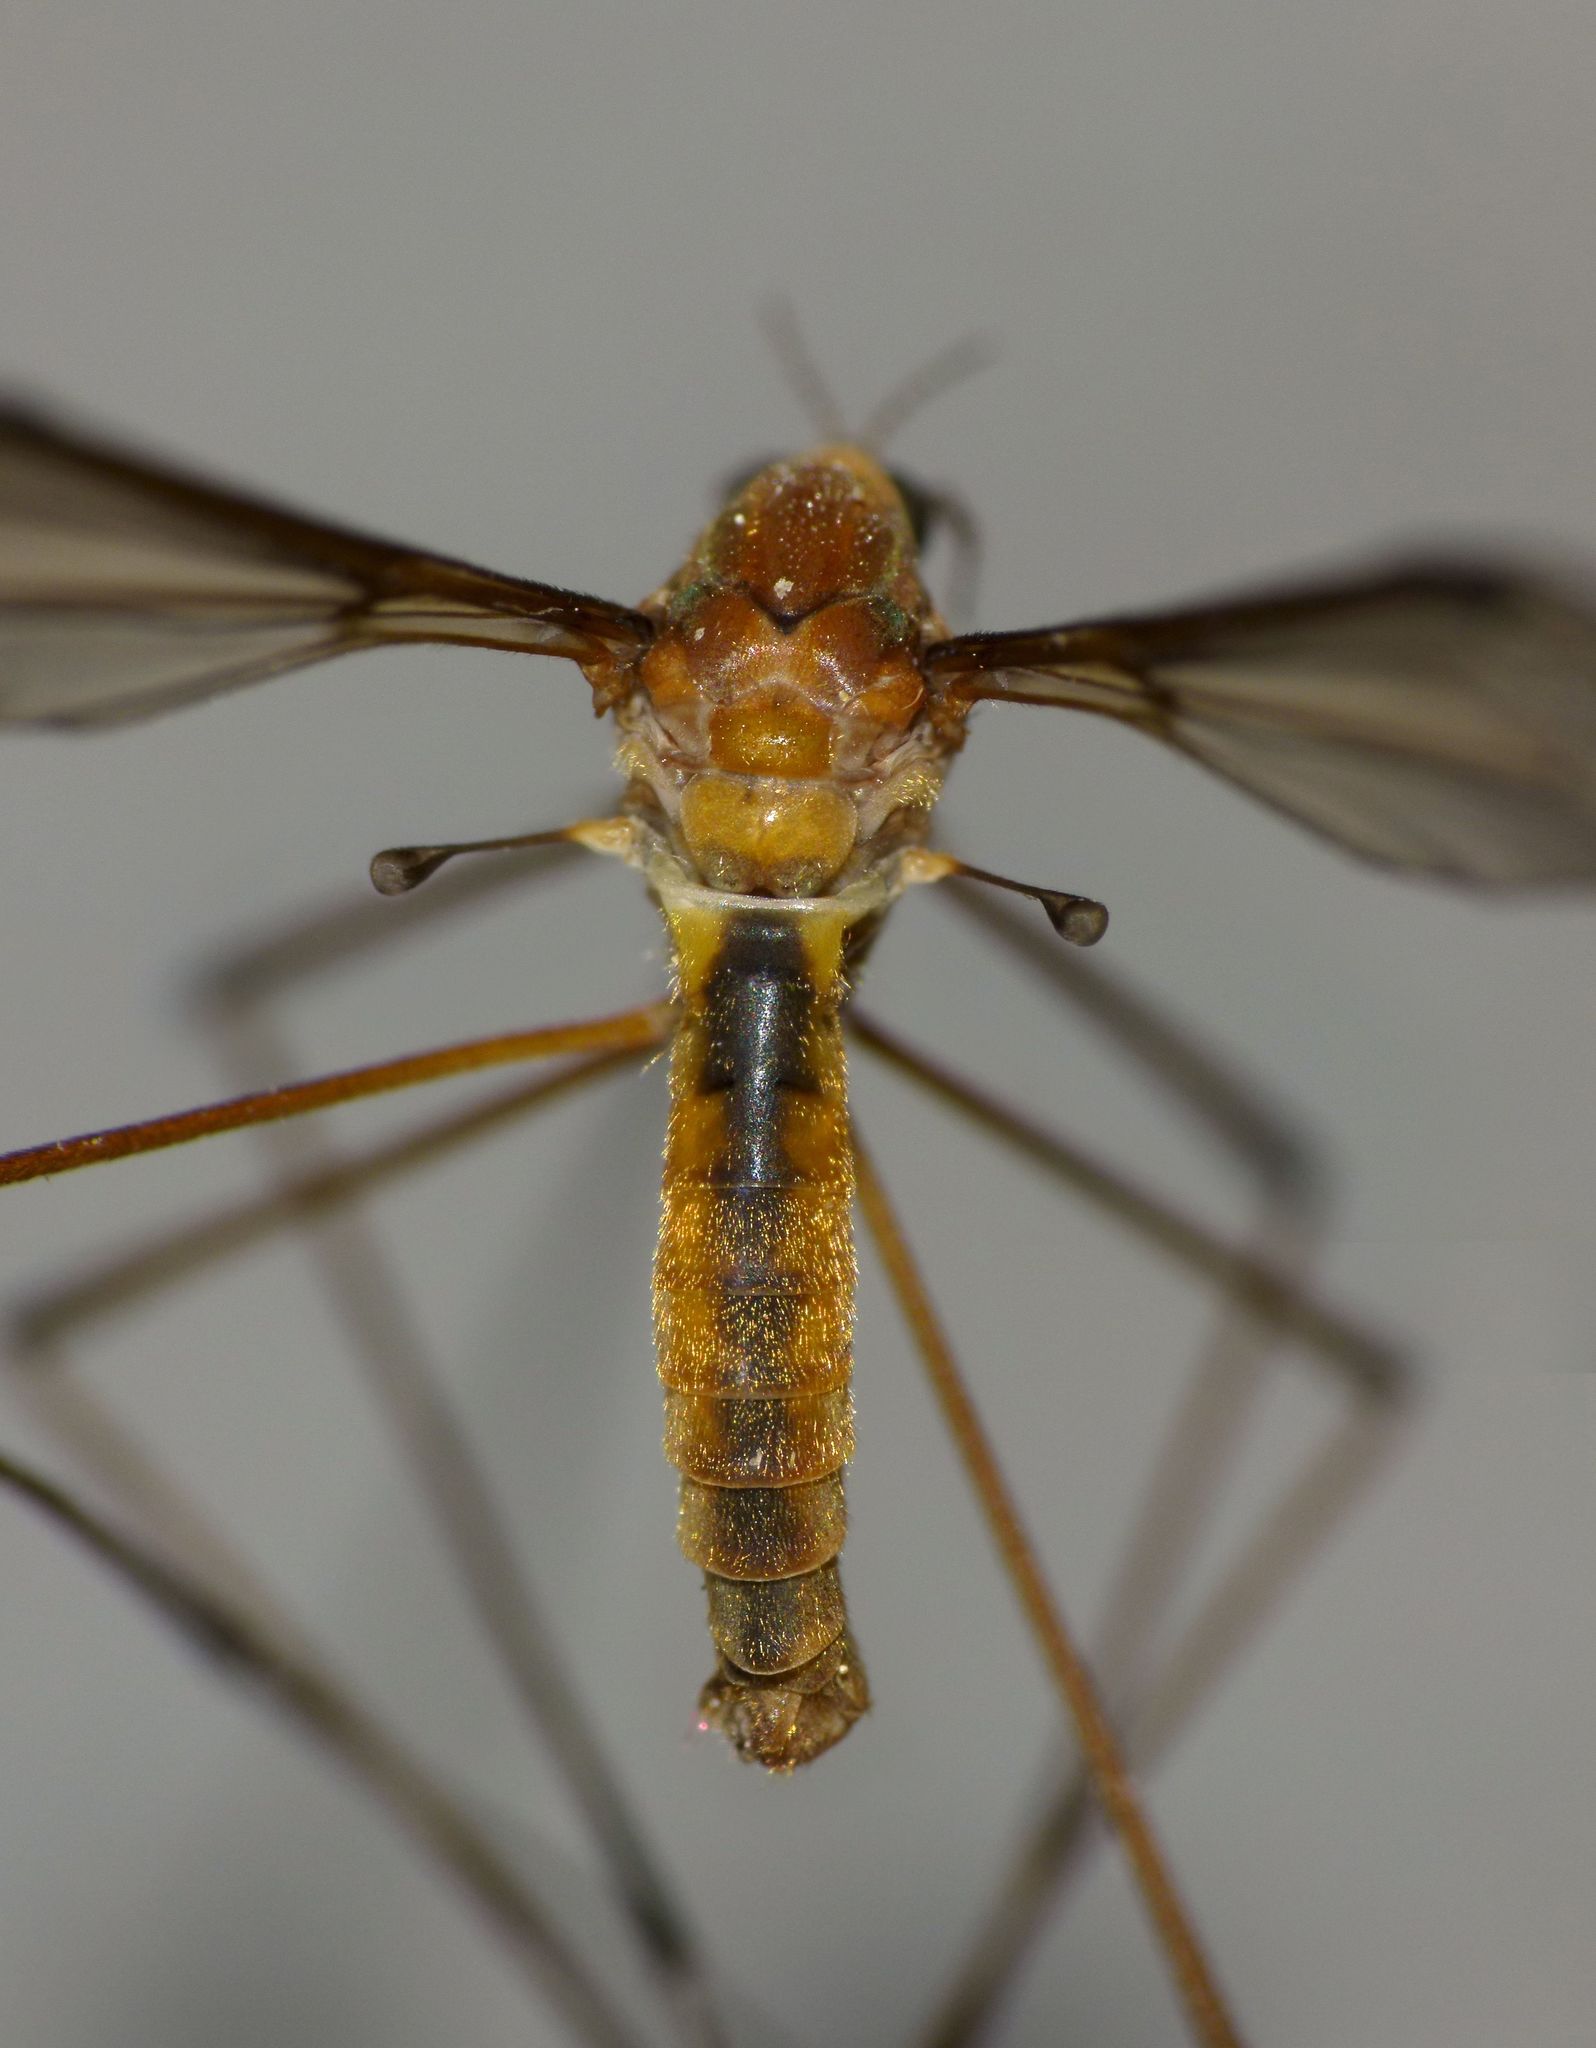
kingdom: Animalia
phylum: Arthropoda
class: Insecta
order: Diptera
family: Tipulidae
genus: Leptotarsus
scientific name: Leptotarsus dichroithorax
